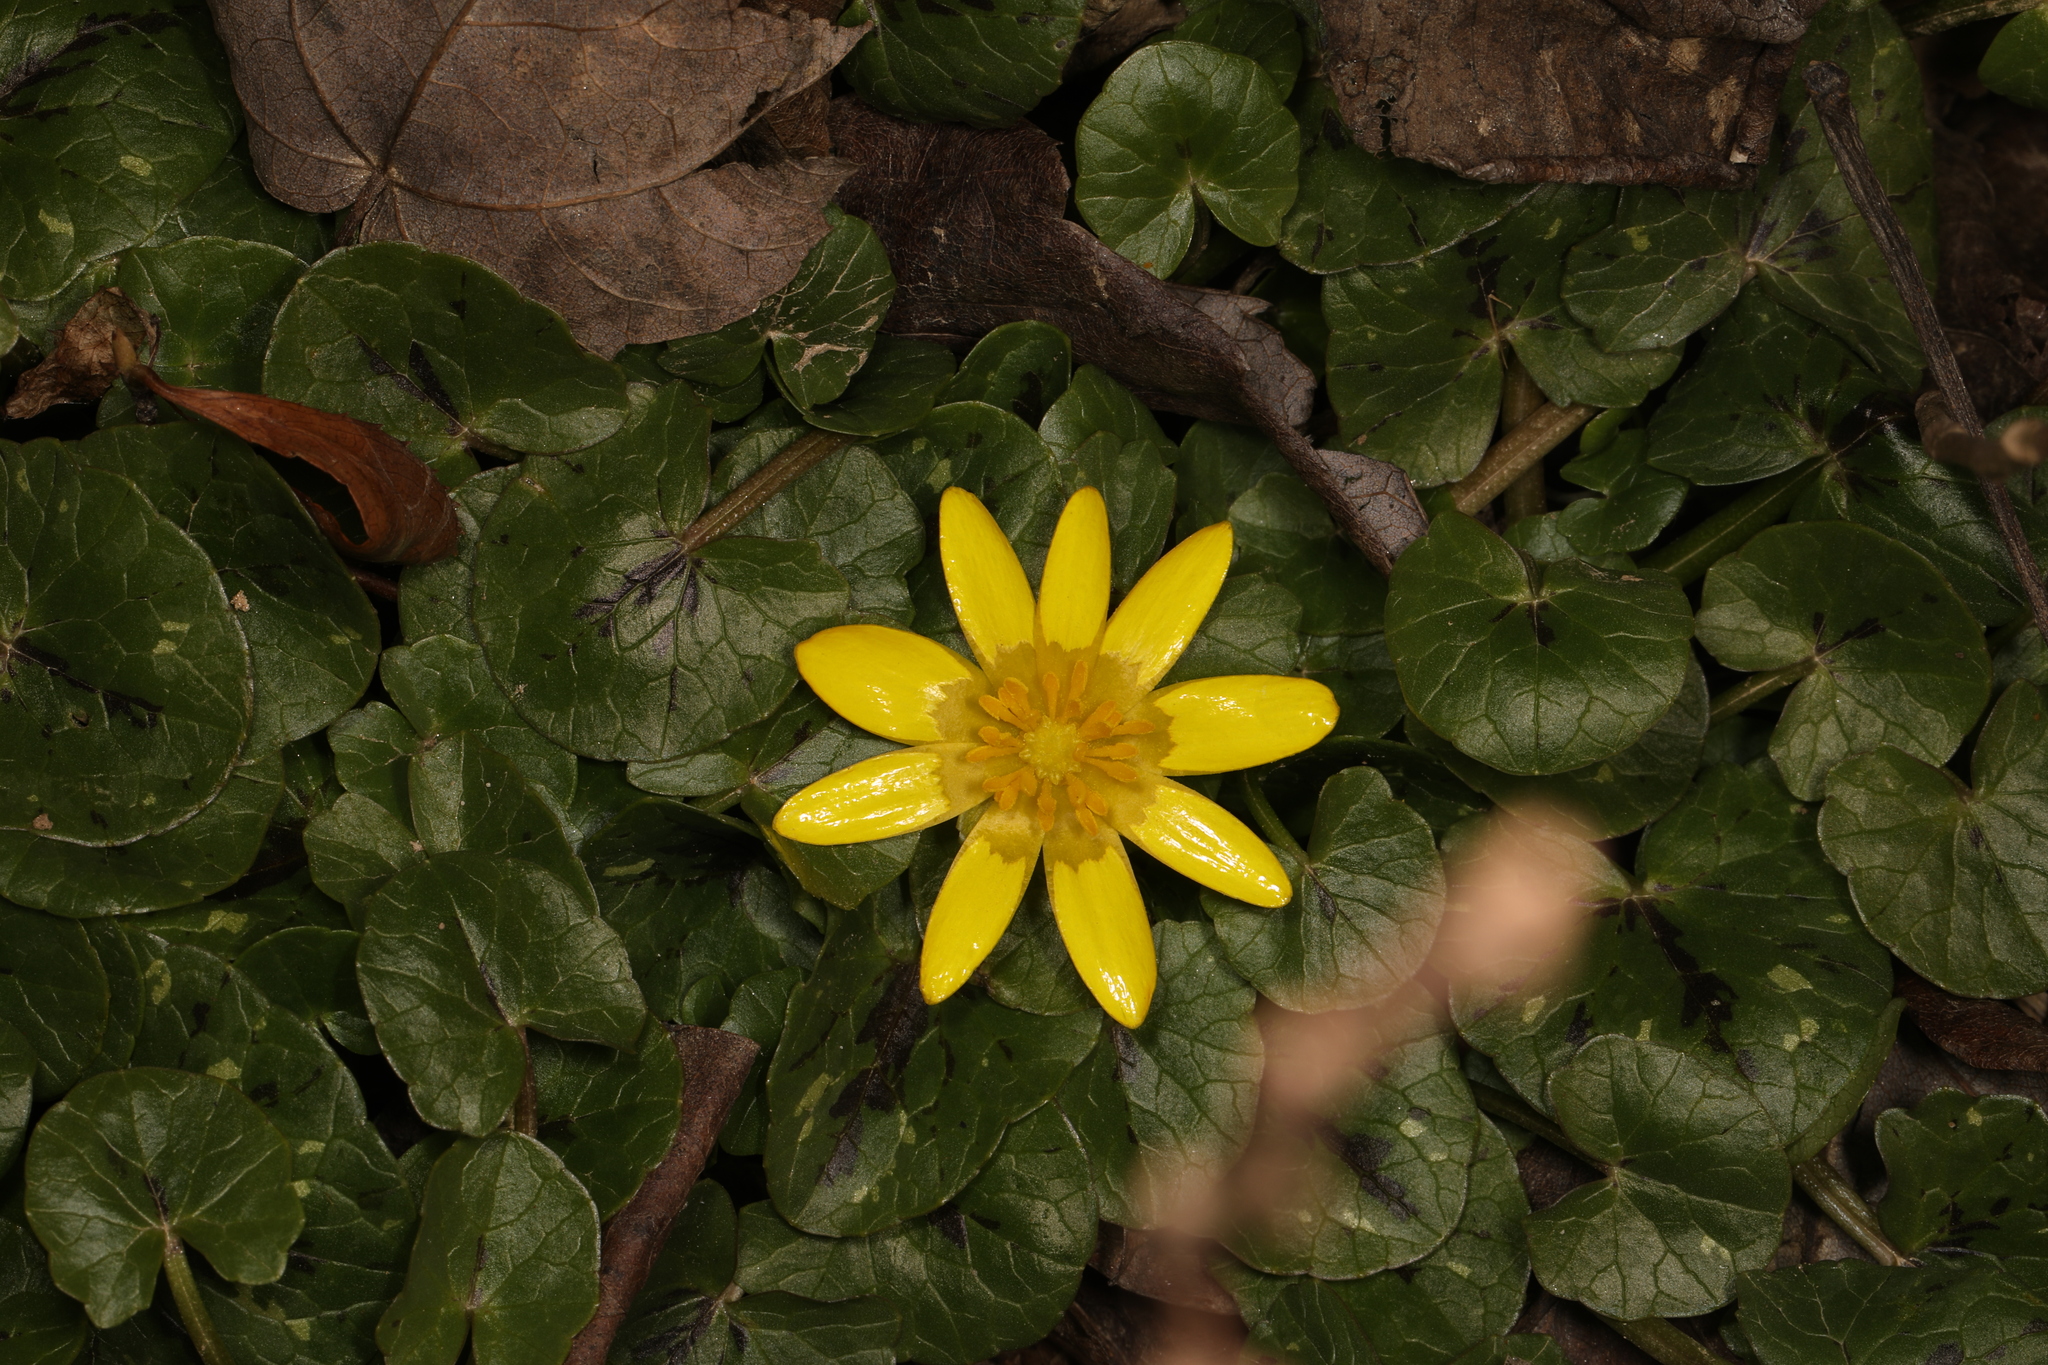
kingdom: Plantae
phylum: Tracheophyta
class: Magnoliopsida
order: Ranunculales
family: Ranunculaceae
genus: Ficaria
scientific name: Ficaria verna
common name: Lesser celandine
